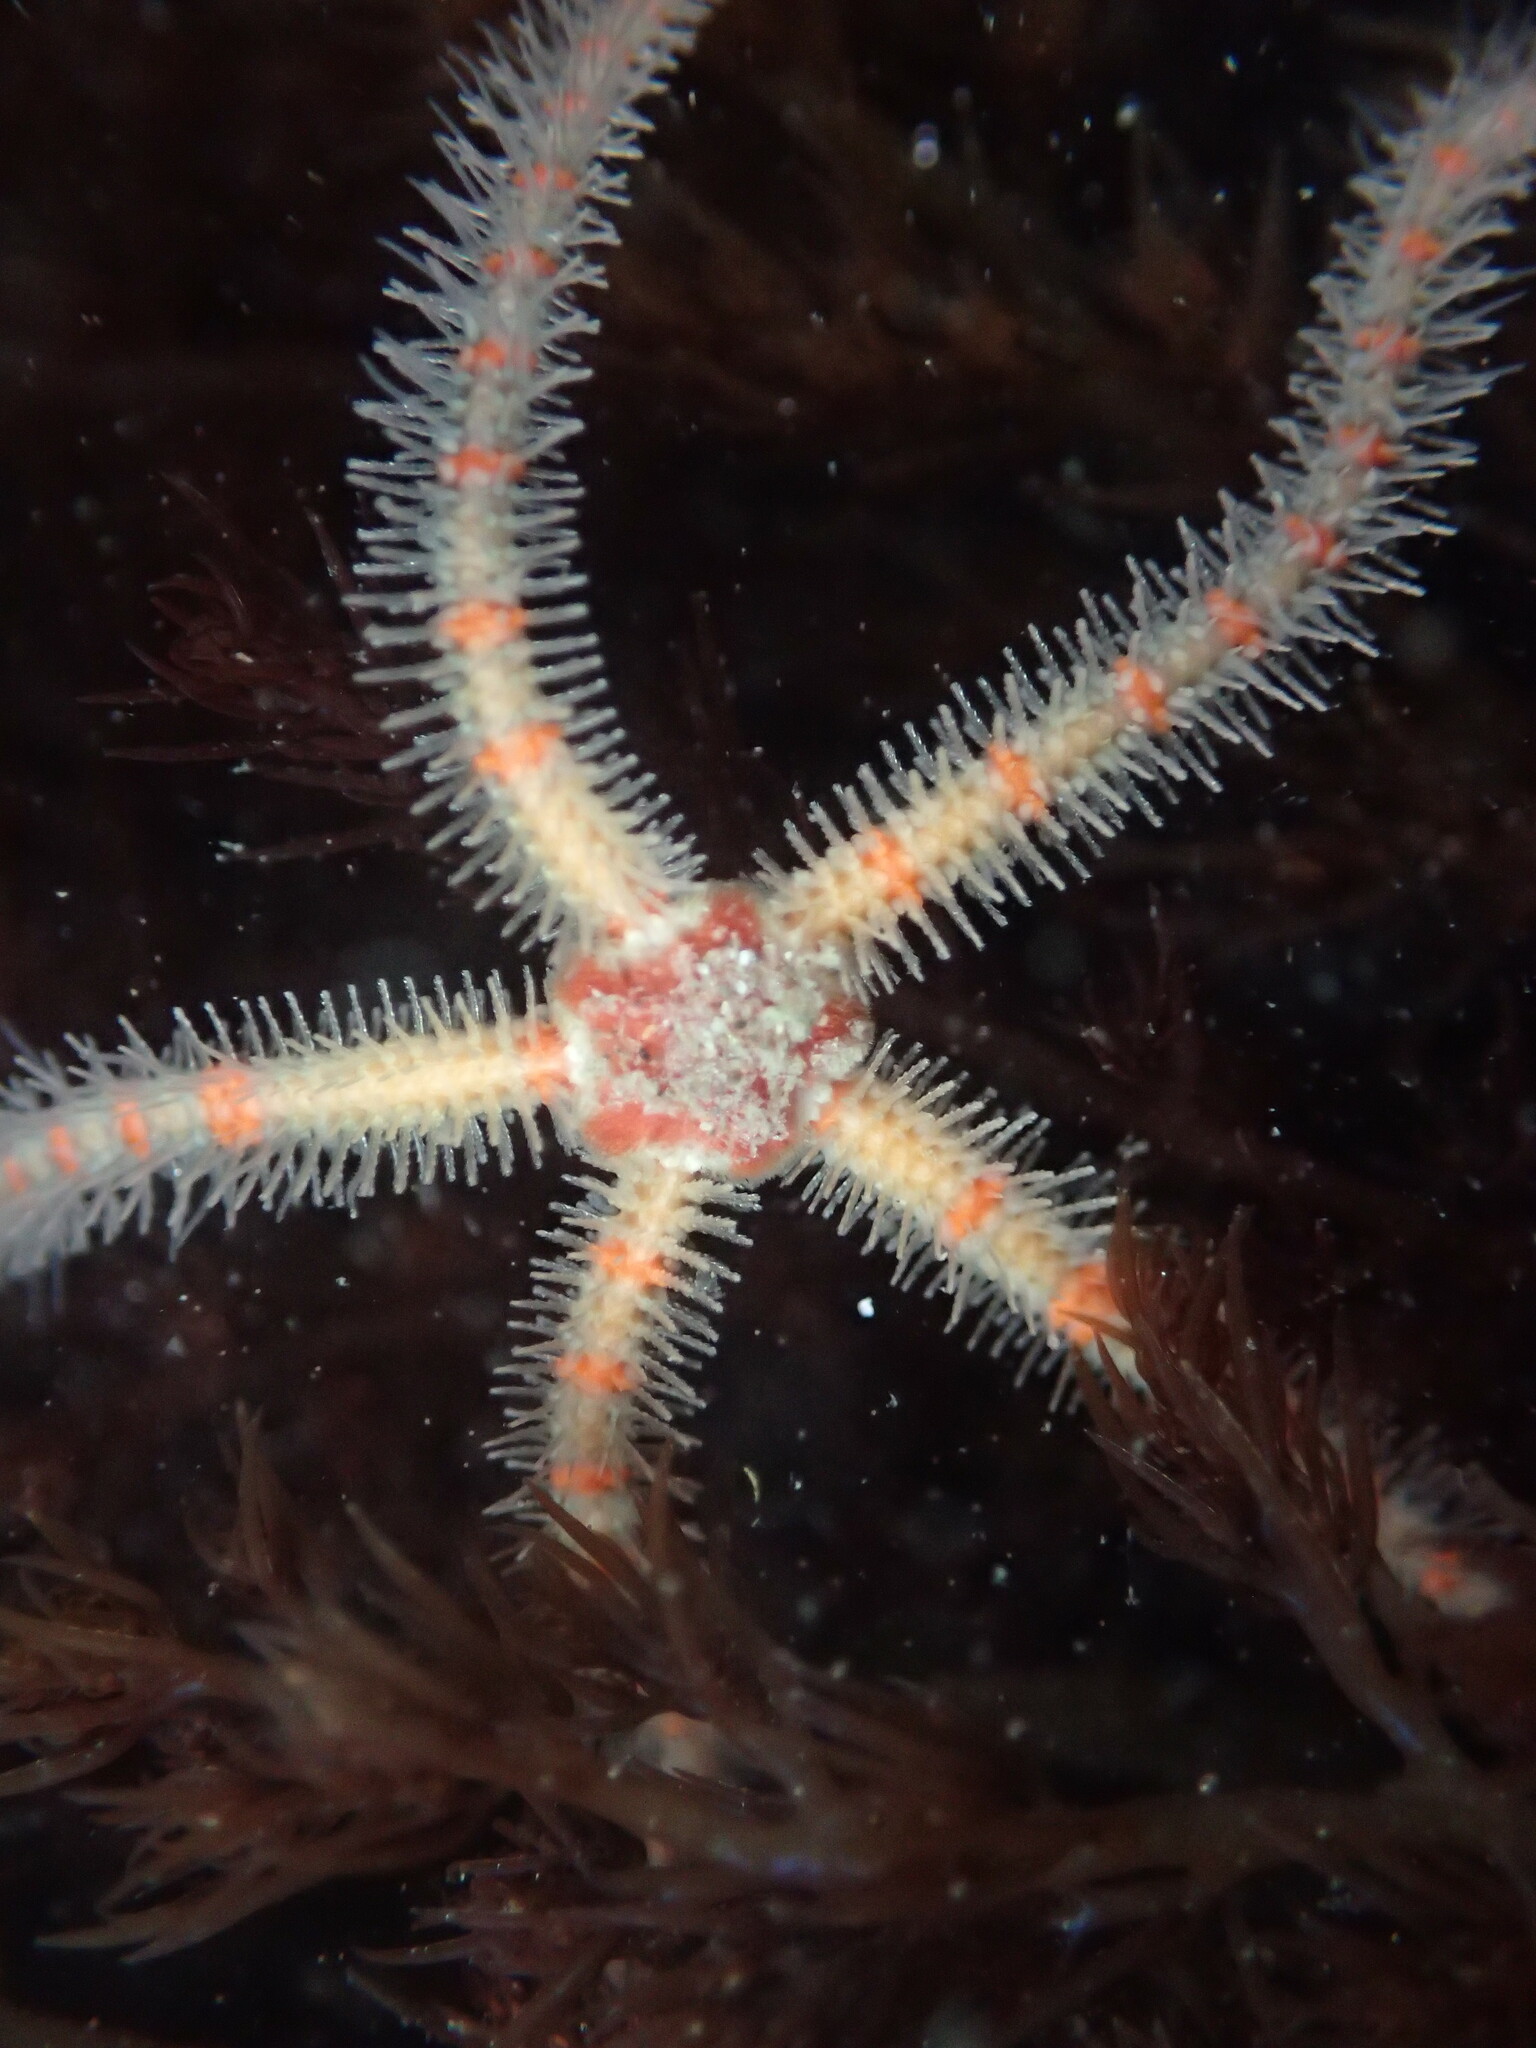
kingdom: Animalia
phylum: Echinodermata
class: Ophiuroidea
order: Amphilepidida
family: Ophiotrichidae
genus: Ophiothrix
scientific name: Ophiothrix spiculata
